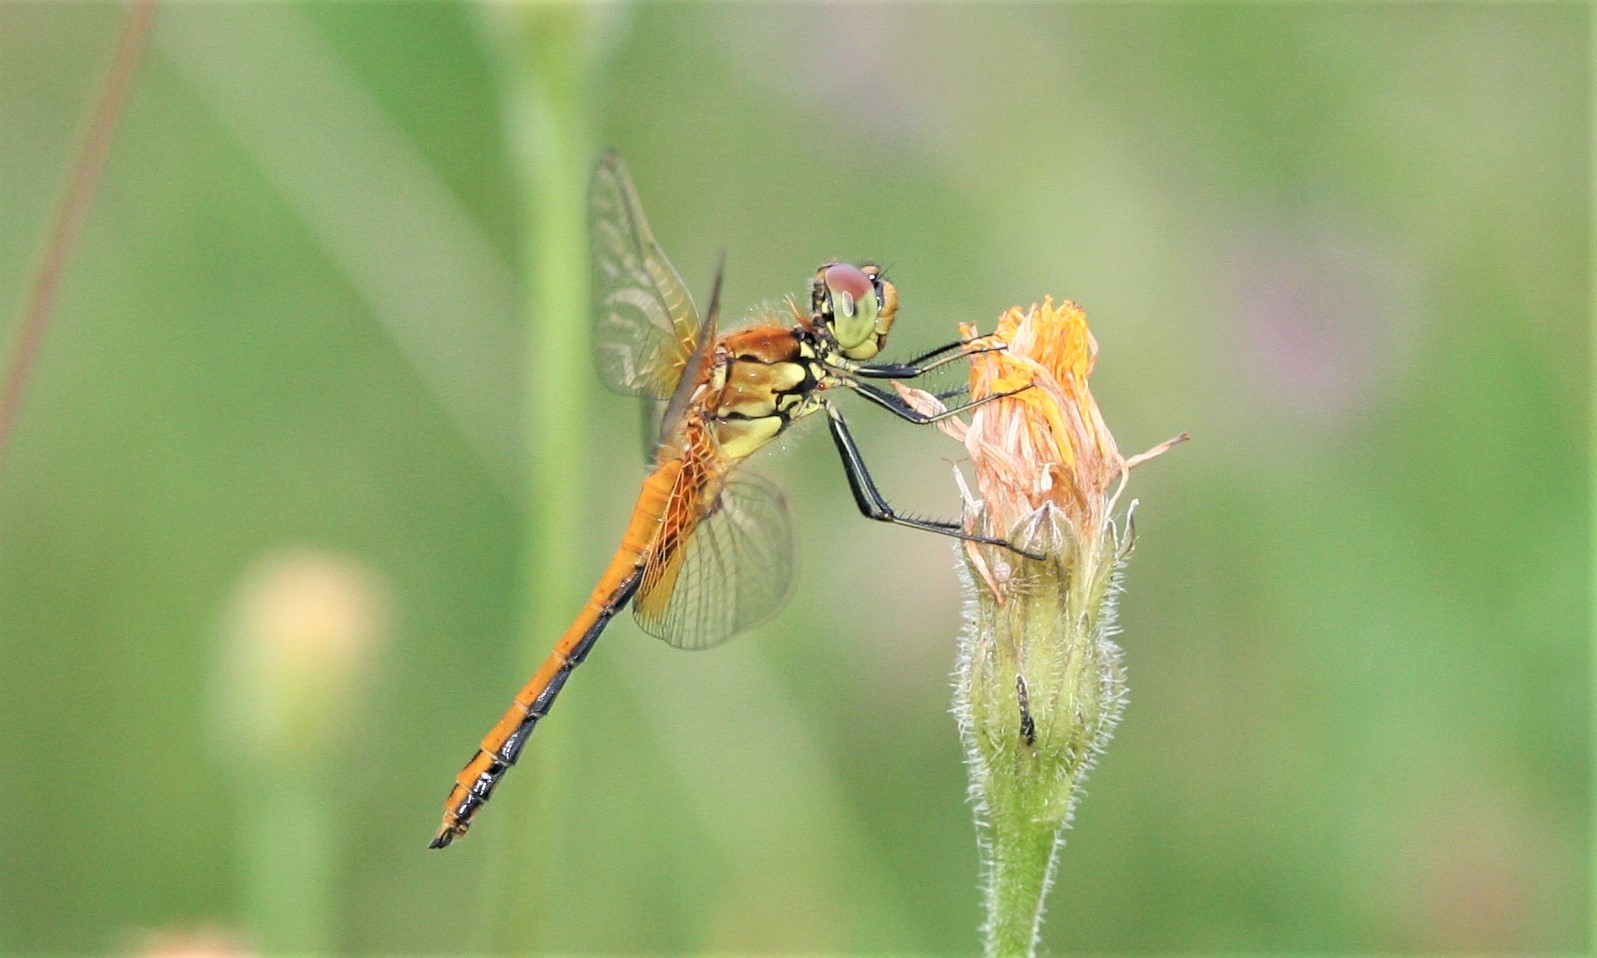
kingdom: Animalia
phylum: Arthropoda
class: Insecta
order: Odonata
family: Libellulidae
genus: Sympetrum
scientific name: Sympetrum flaveolum
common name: Yellow-winged darter
